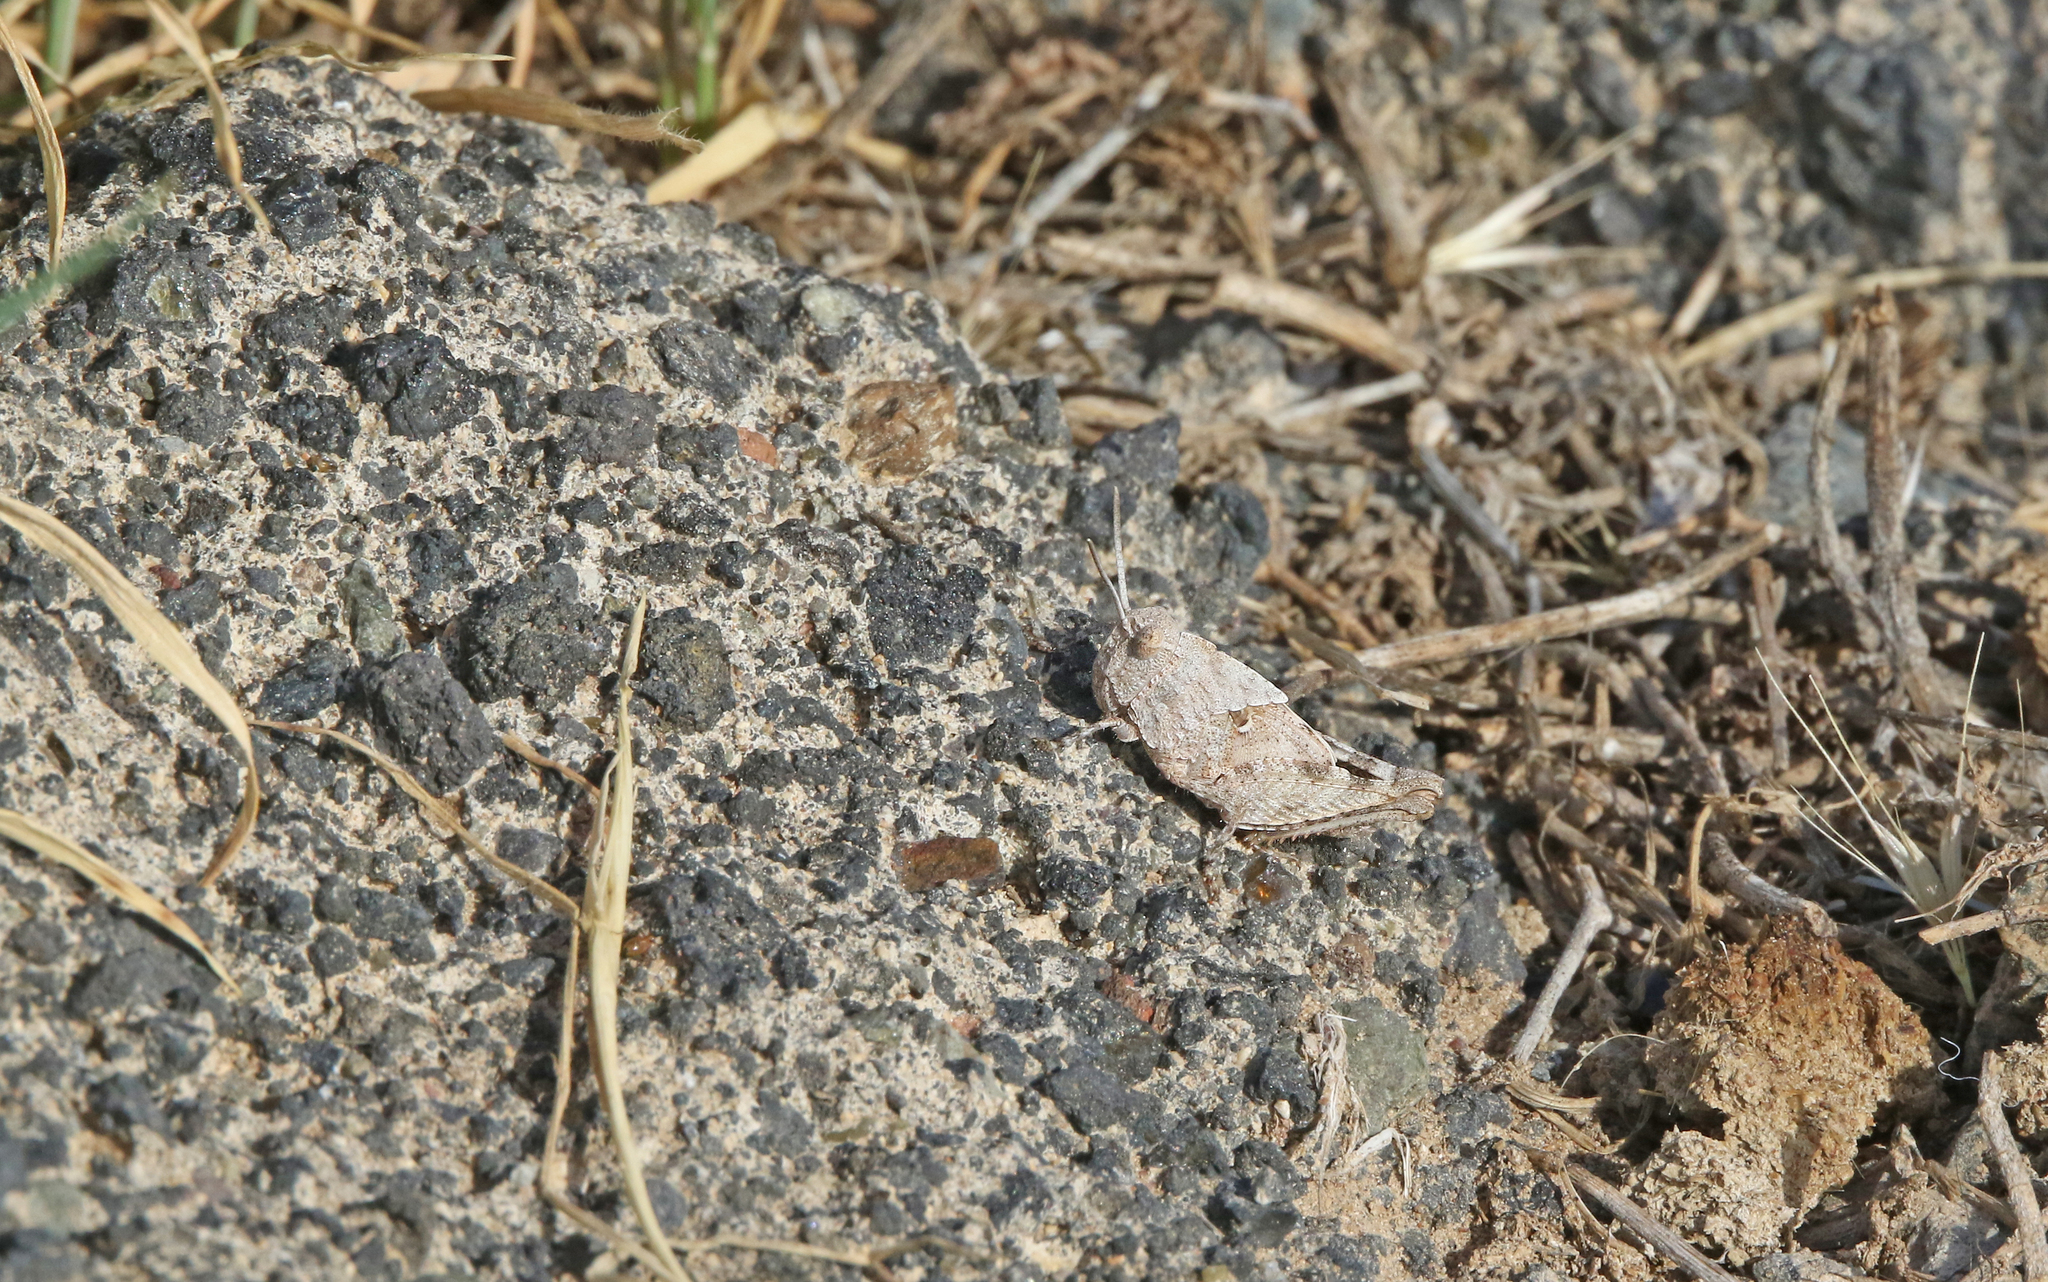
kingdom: Animalia
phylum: Arthropoda
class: Insecta
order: Orthoptera
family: Acrididae
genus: Oedipoda
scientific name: Oedipoda canariensis
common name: Canarian band-winged grasshopper
